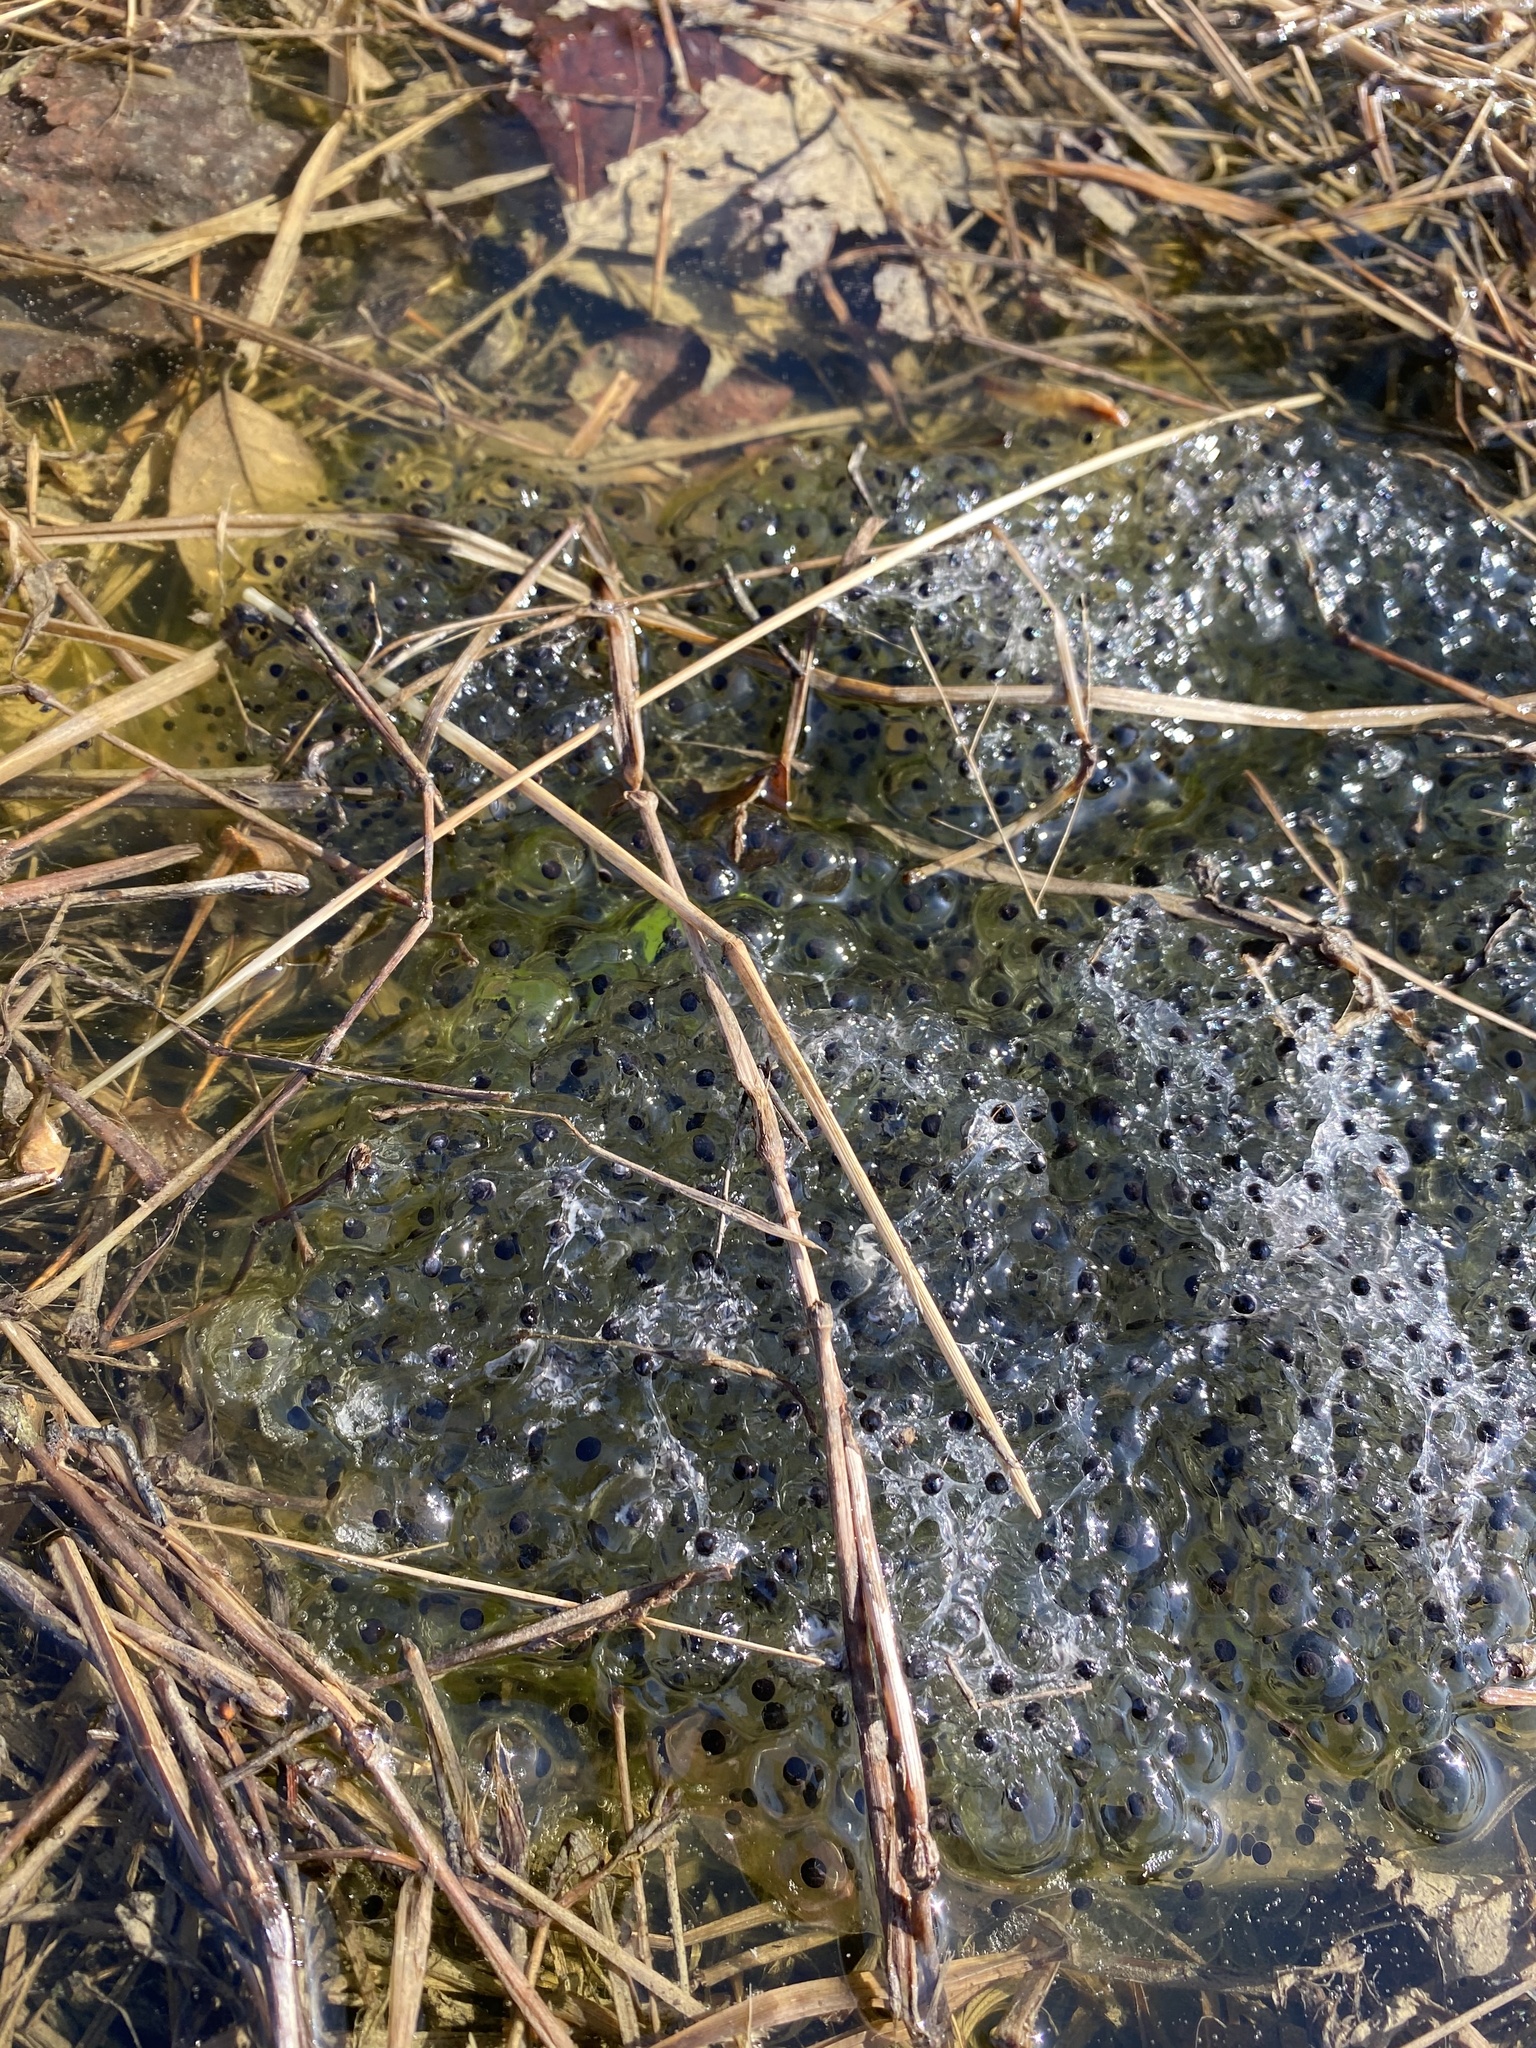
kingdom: Animalia
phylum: Chordata
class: Amphibia
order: Anura
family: Ranidae
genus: Lithobates
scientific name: Lithobates sylvaticus
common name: Wood frog
